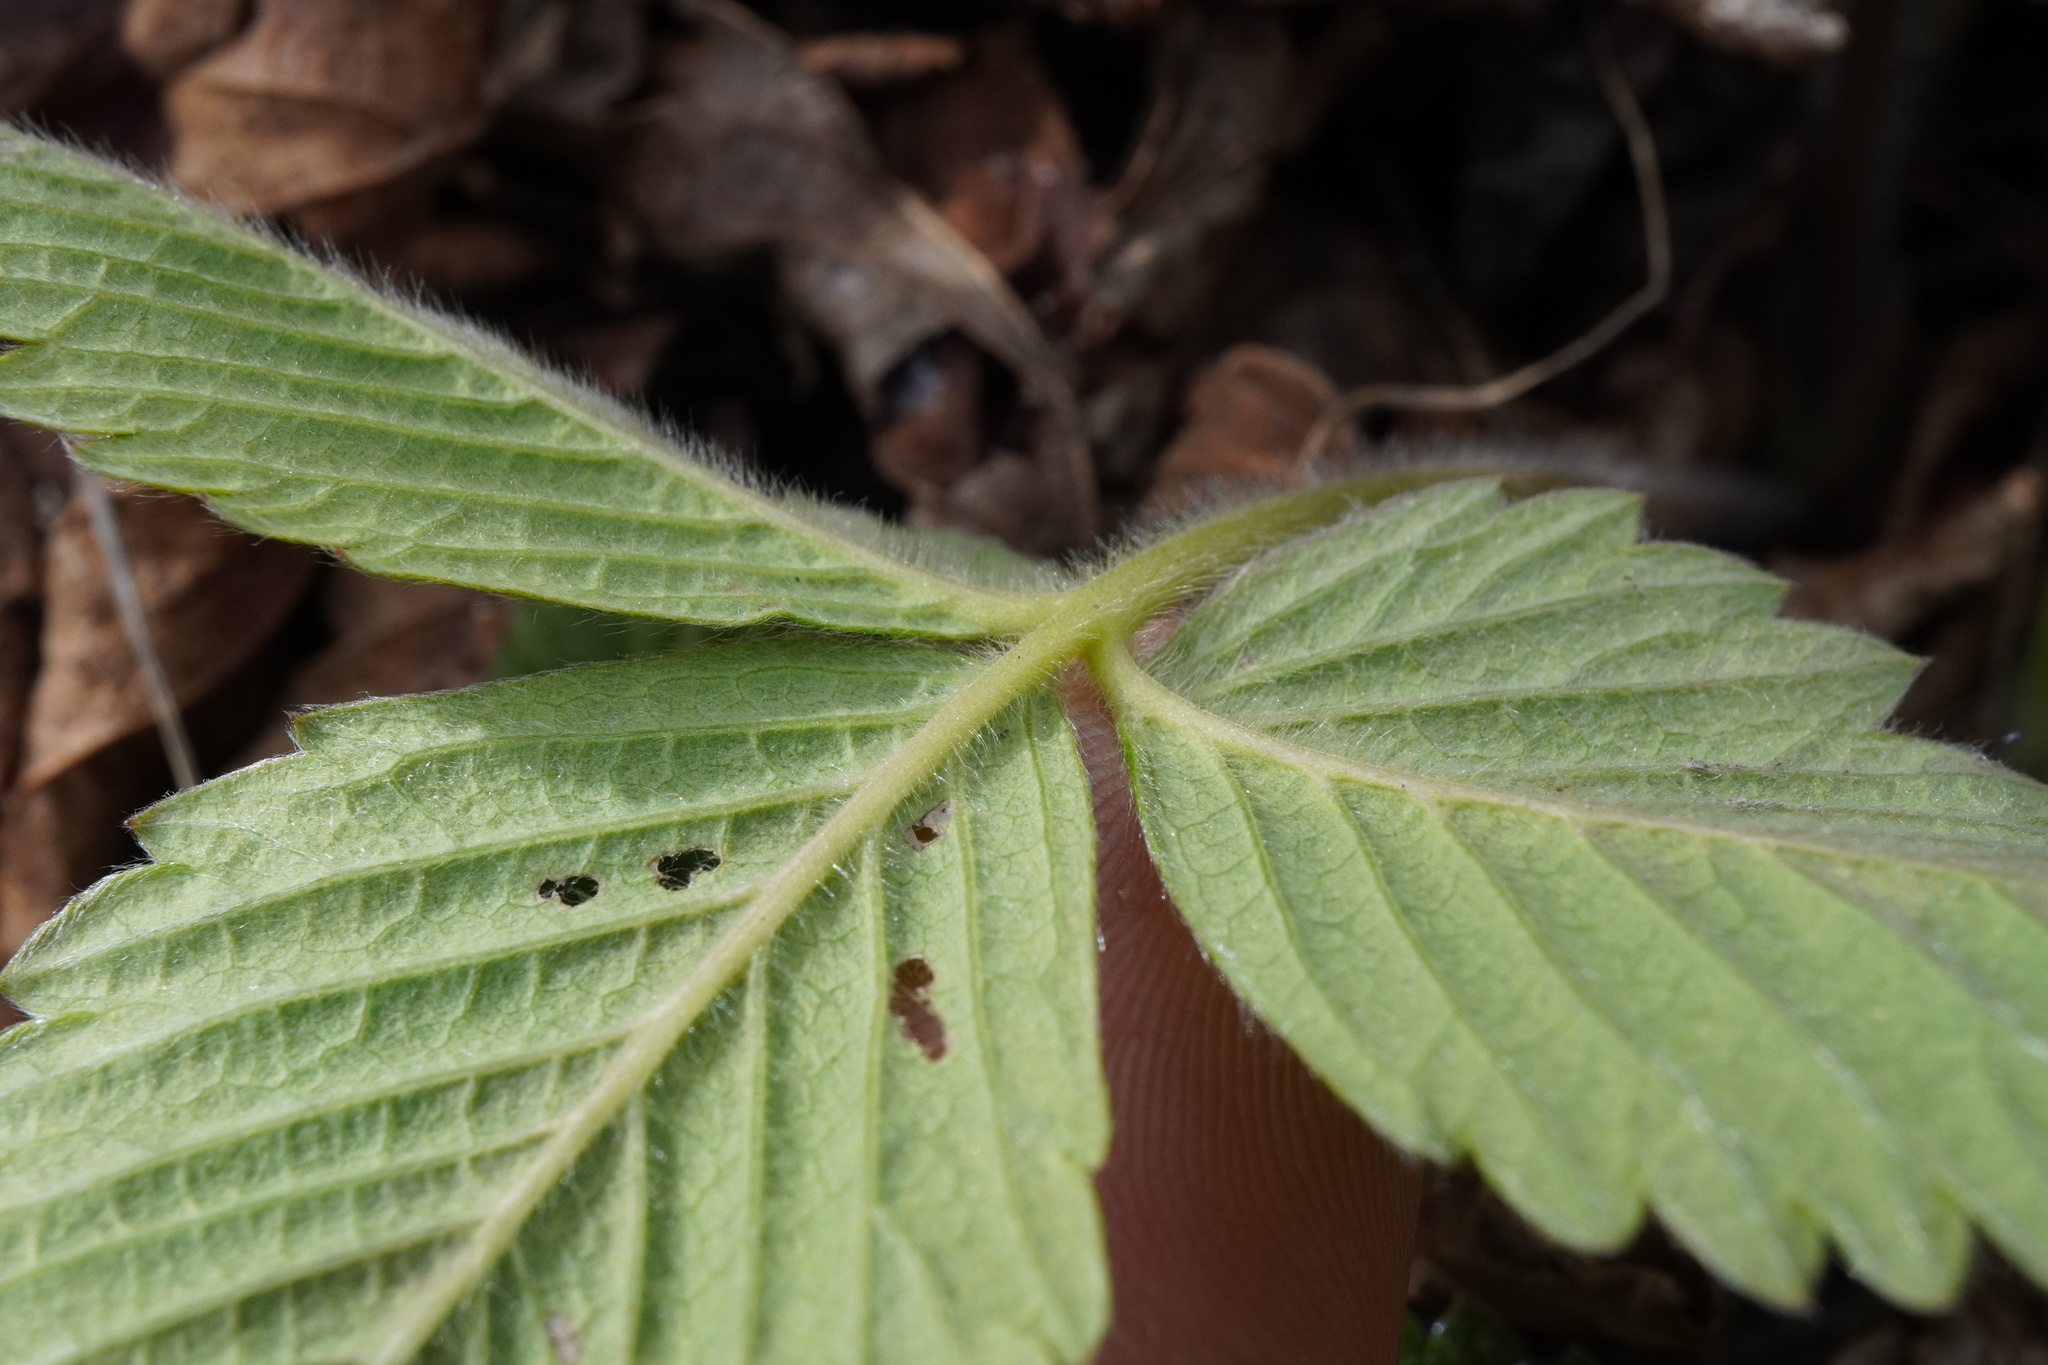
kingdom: Plantae
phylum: Tracheophyta
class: Magnoliopsida
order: Rosales
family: Rosaceae
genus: Fragaria
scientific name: Fragaria moschata
